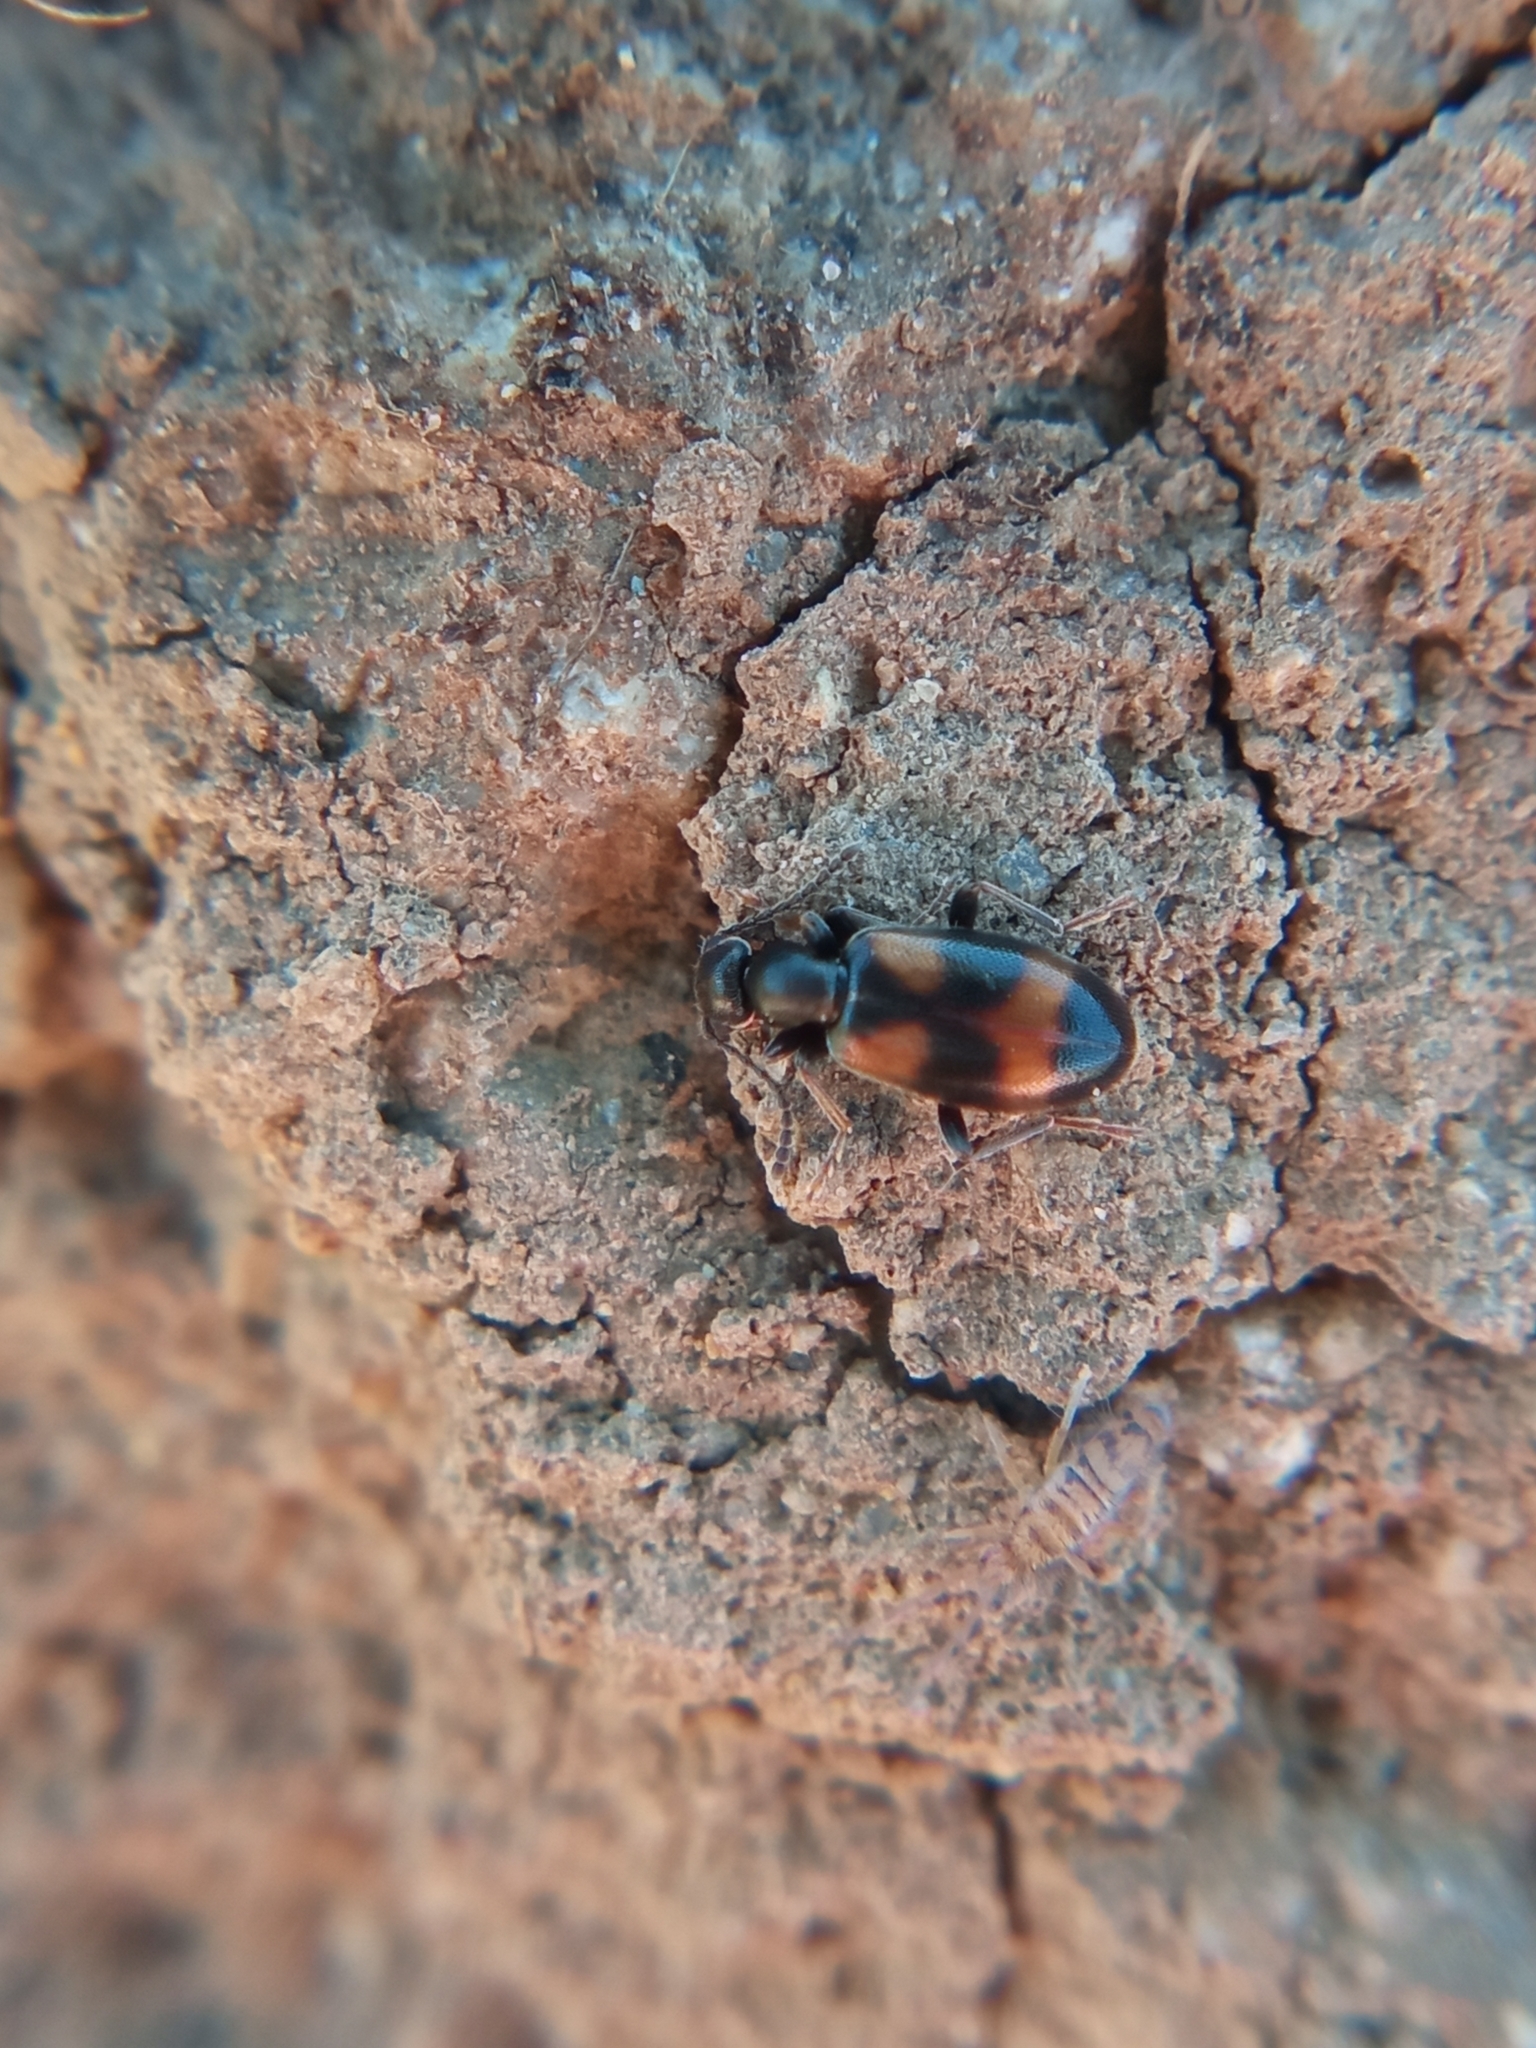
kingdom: Animalia
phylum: Arthropoda
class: Insecta
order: Coleoptera
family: Anthicidae
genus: Anthicus
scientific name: Anthicus antherinus
